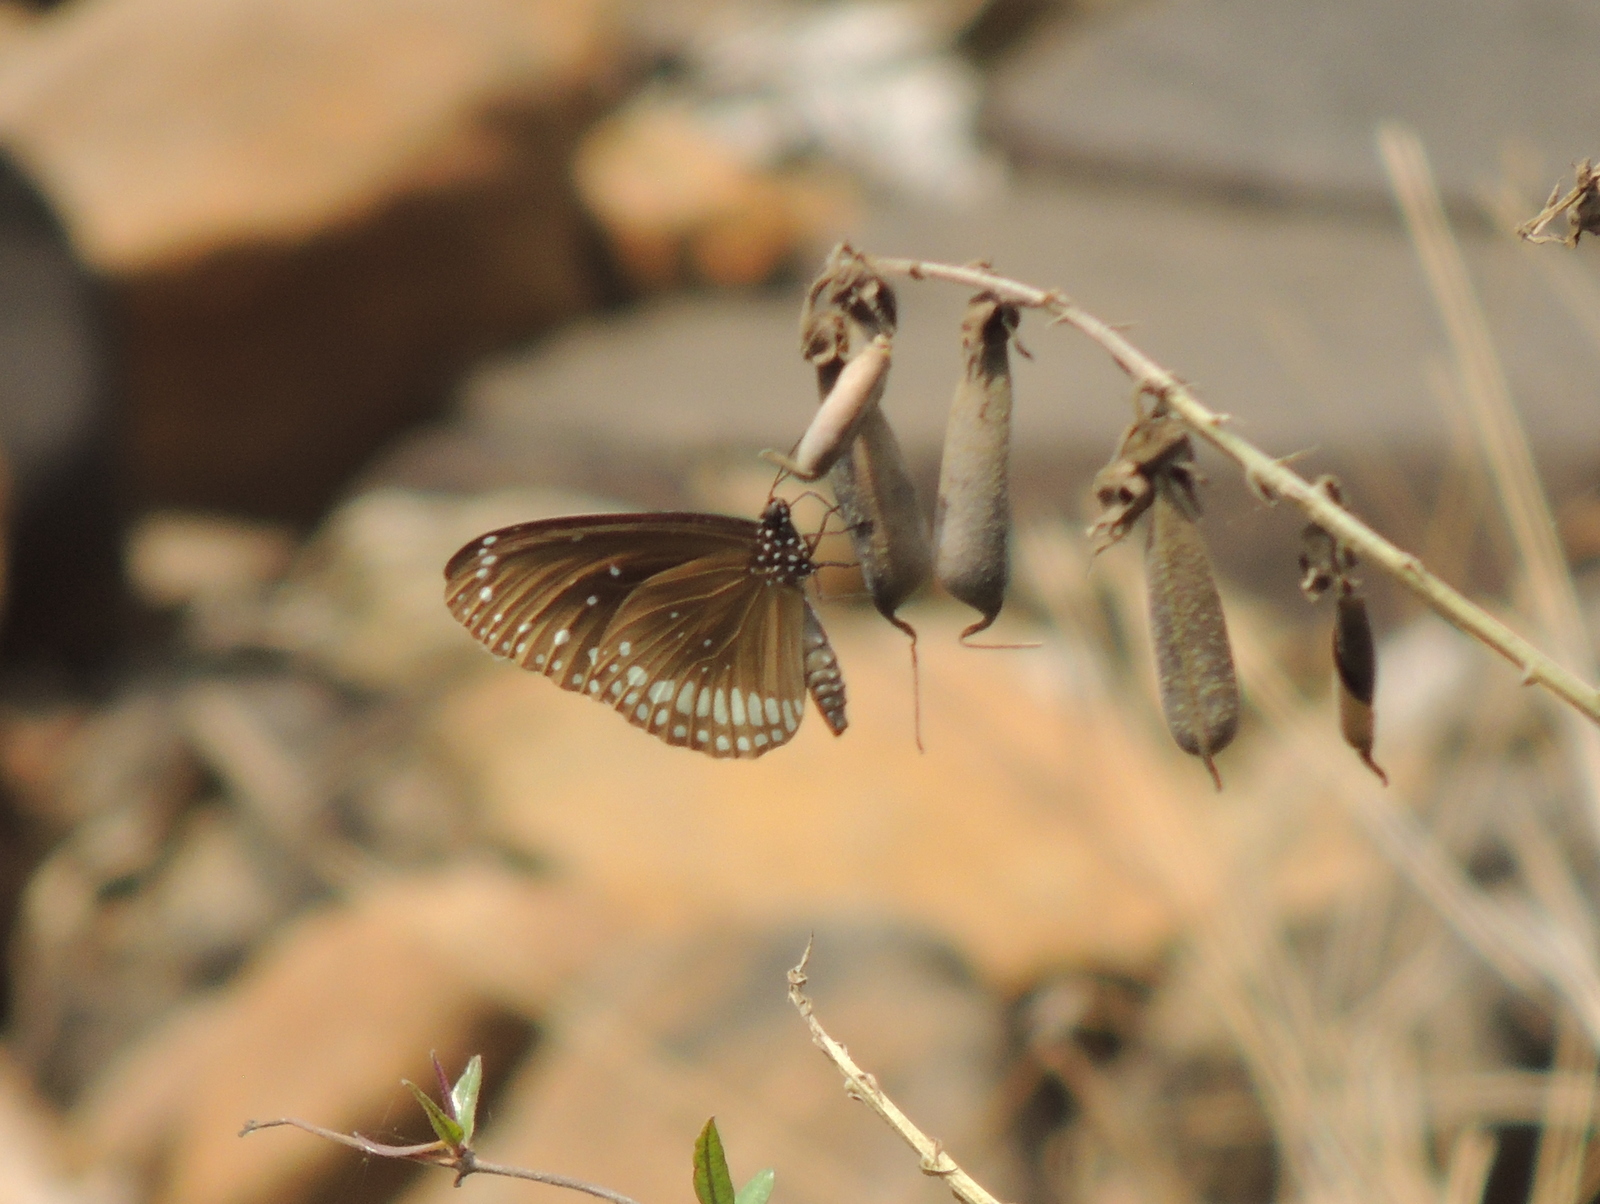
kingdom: Animalia
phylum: Arthropoda
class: Insecta
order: Lepidoptera
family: Nymphalidae
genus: Euploea
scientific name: Euploea core
